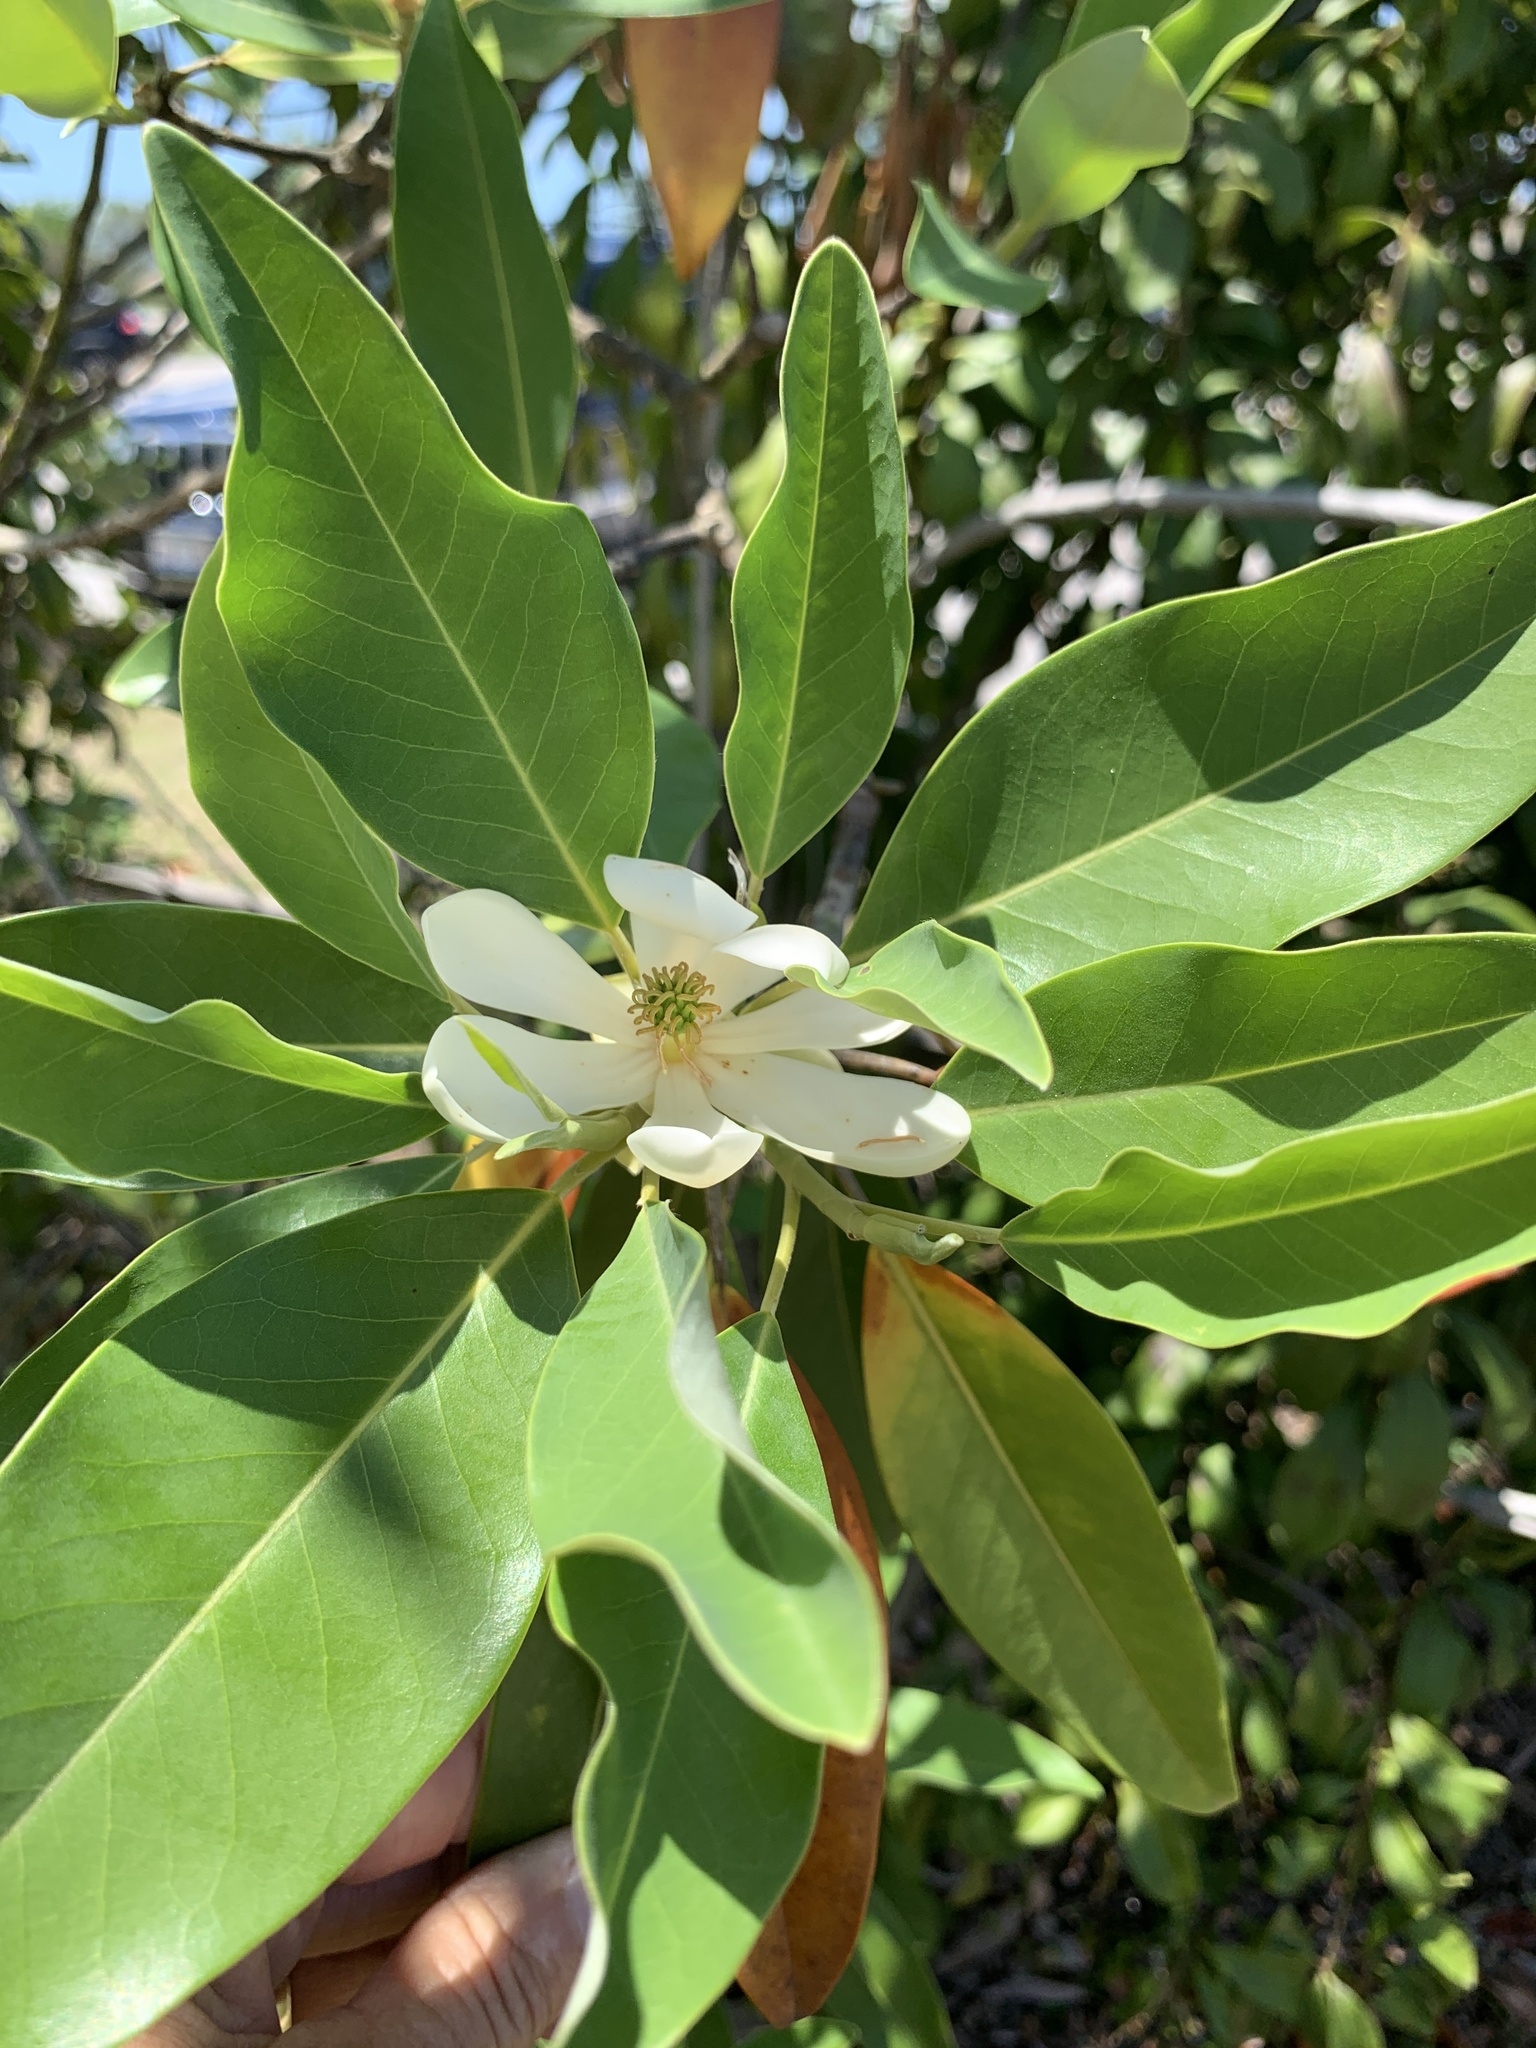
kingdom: Plantae
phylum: Tracheophyta
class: Magnoliopsida
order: Magnoliales
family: Magnoliaceae
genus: Magnolia
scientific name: Magnolia virginiana
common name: Swamp bay
